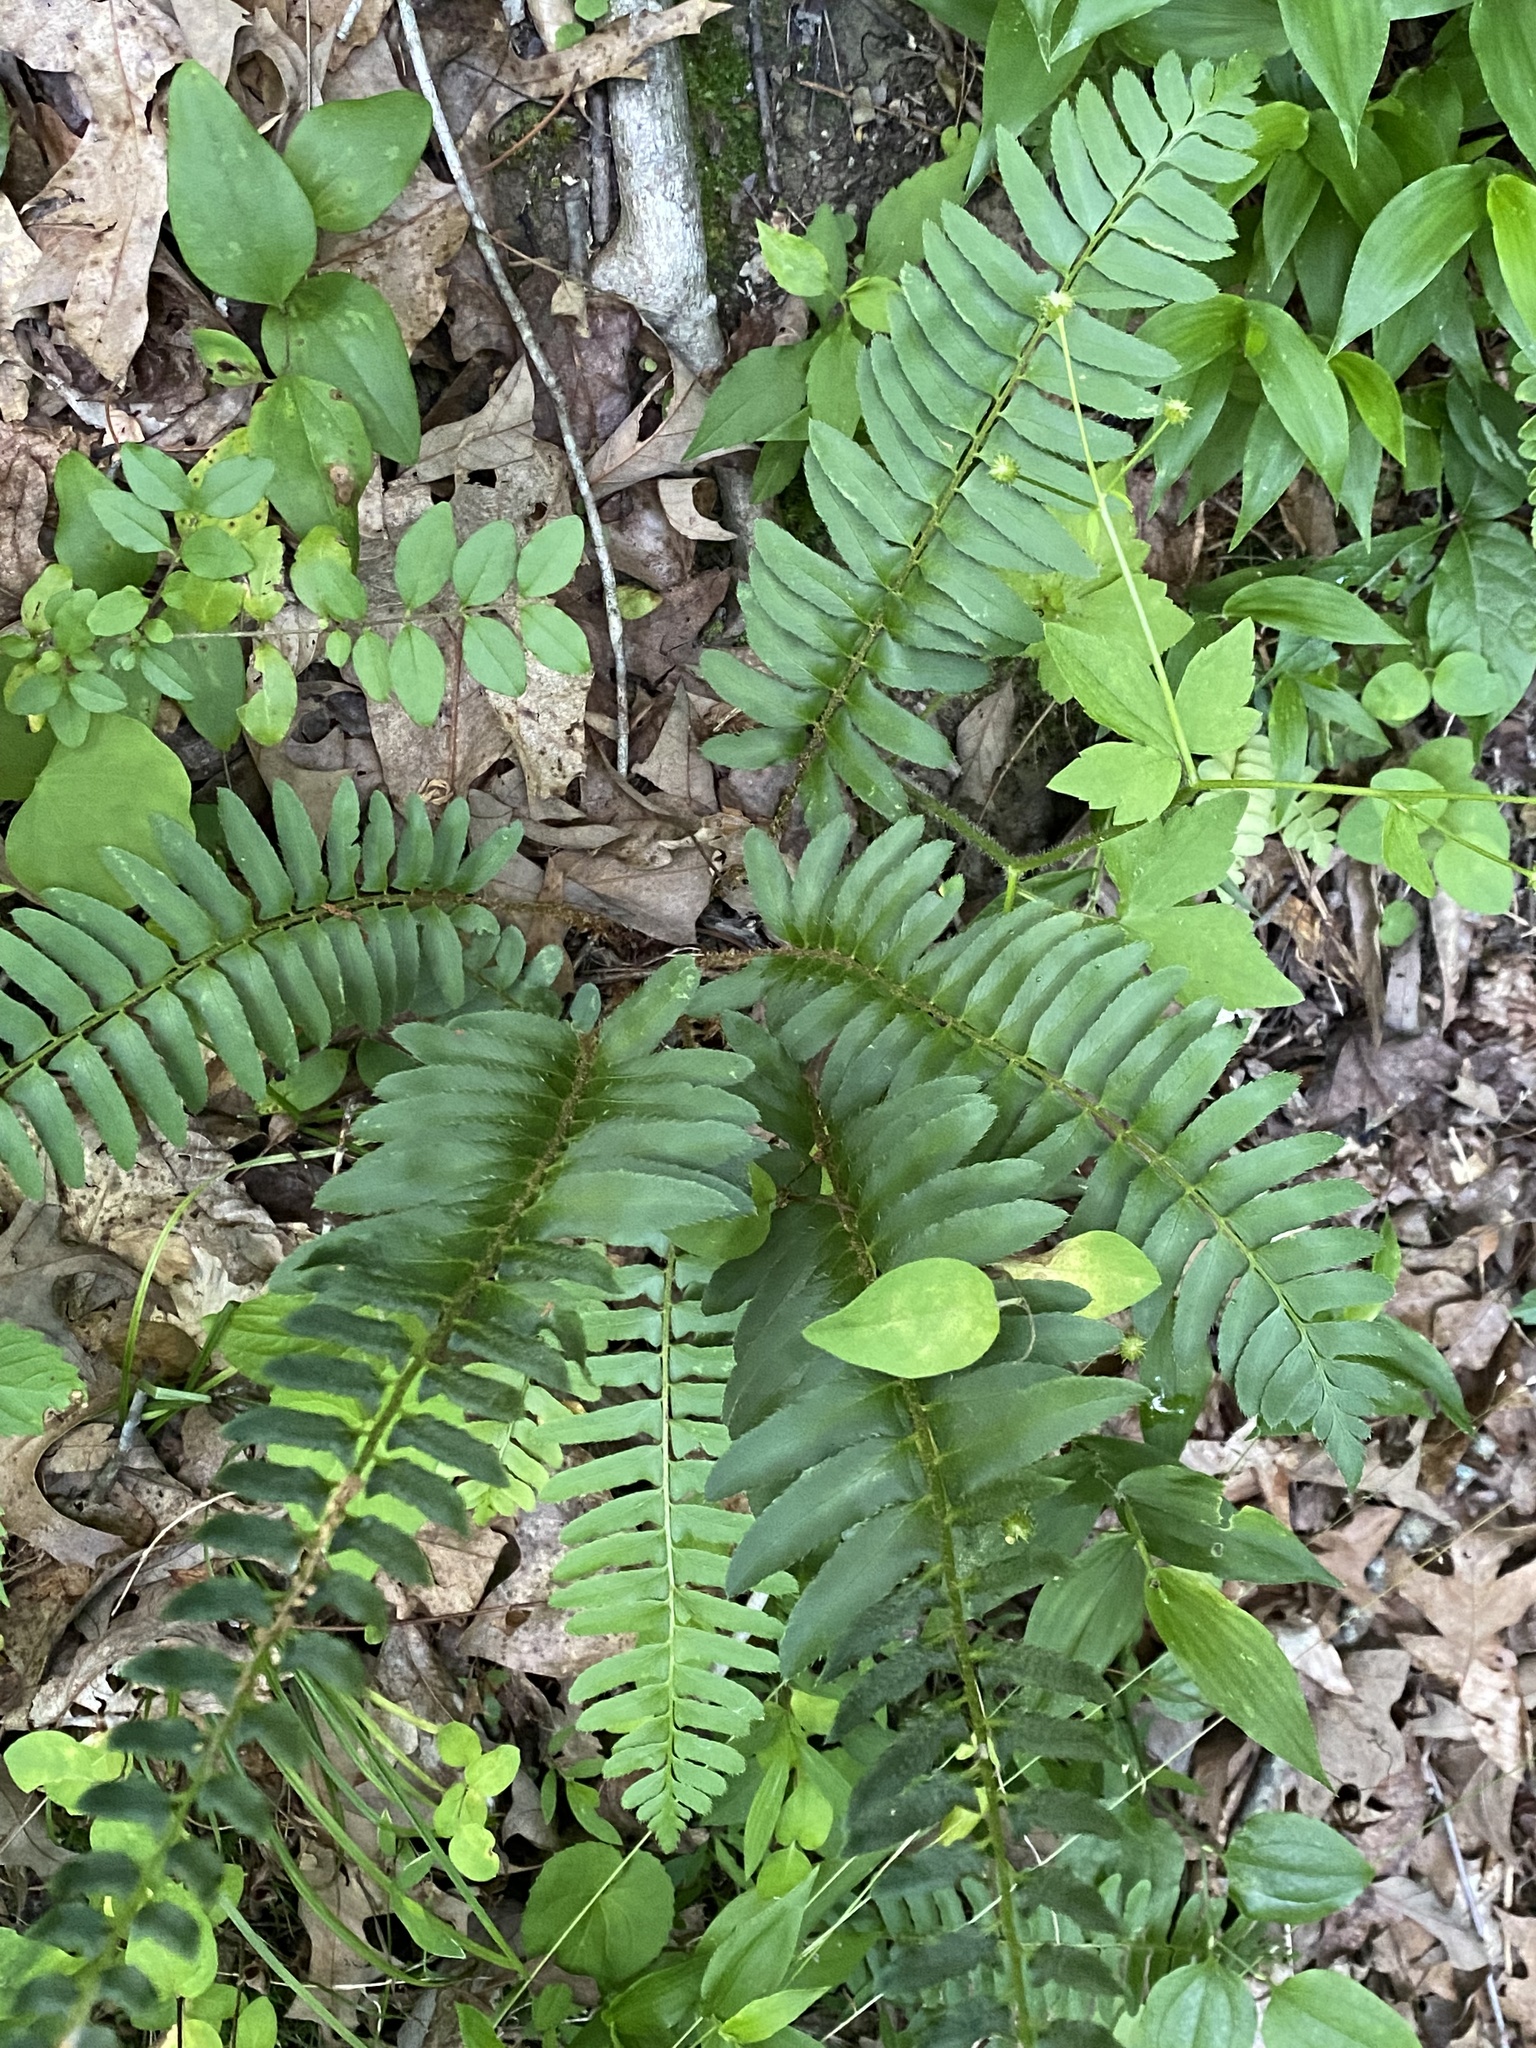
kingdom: Plantae
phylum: Tracheophyta
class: Polypodiopsida
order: Polypodiales
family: Dryopteridaceae
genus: Polystichum
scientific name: Polystichum acrostichoides
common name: Christmas fern
